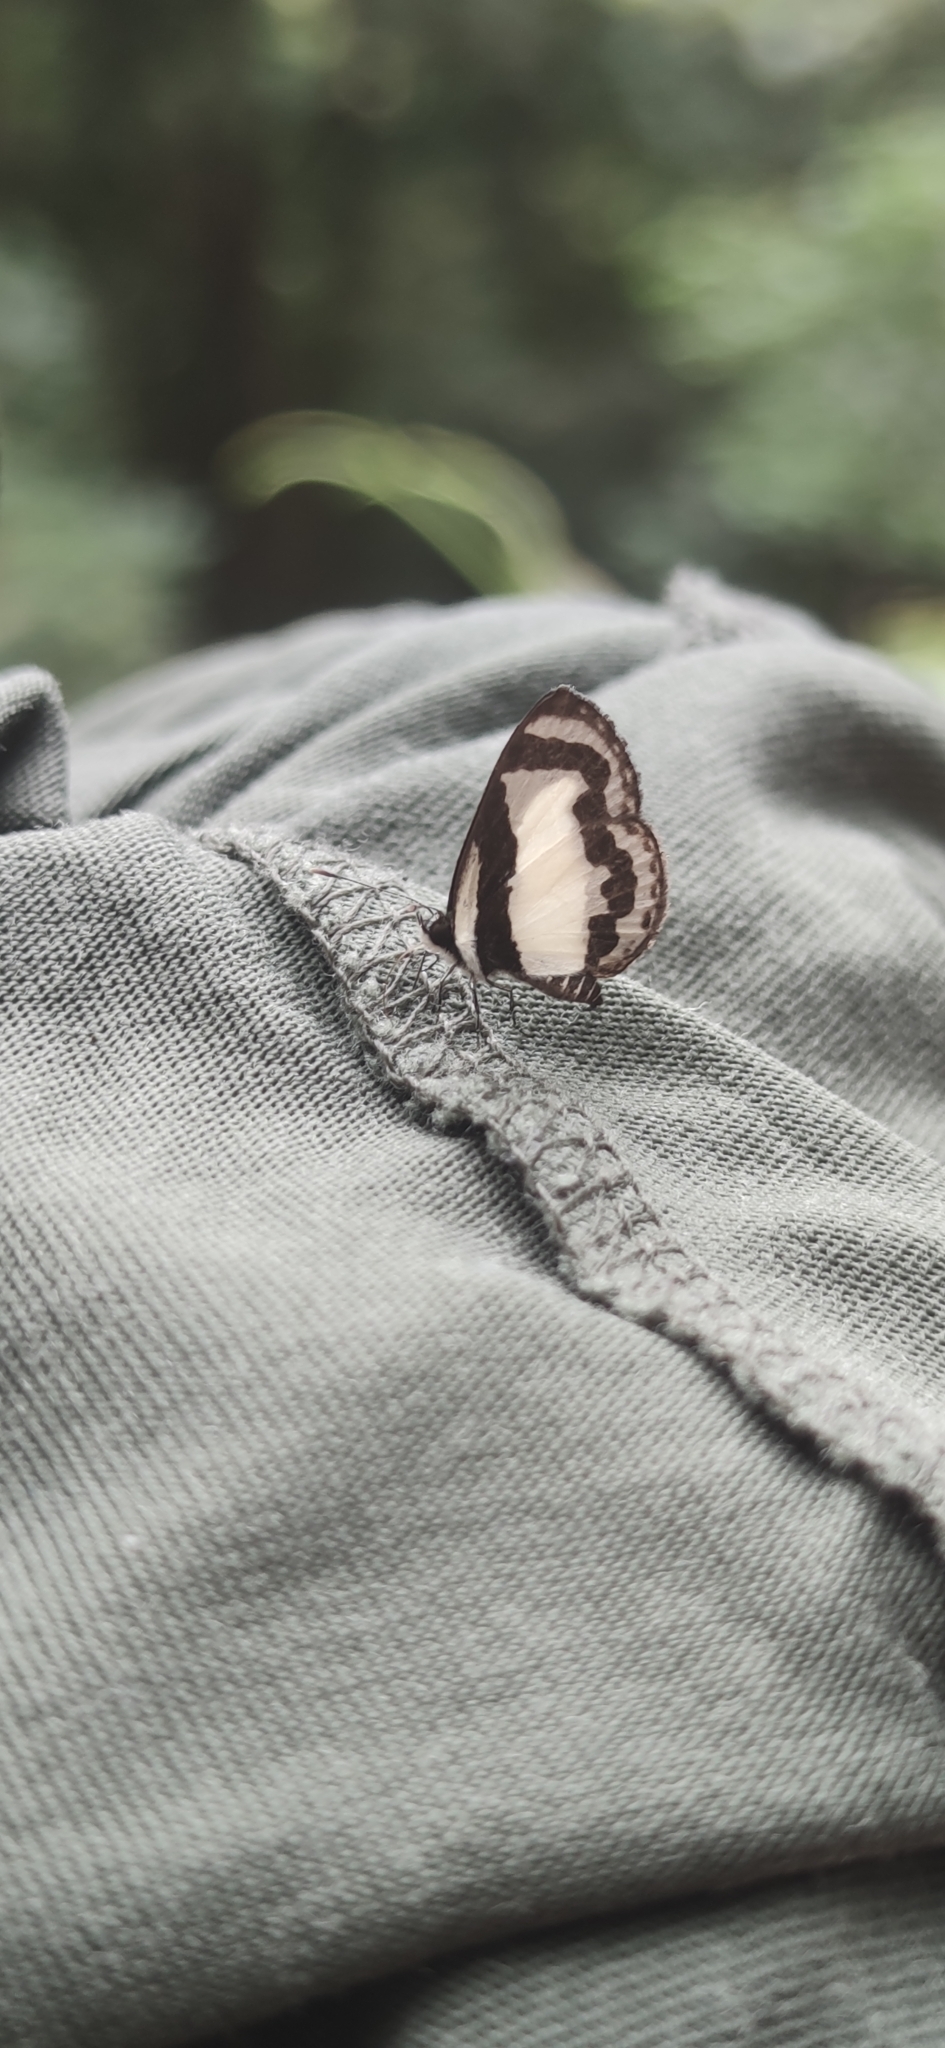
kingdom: Animalia
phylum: Arthropoda
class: Insecta
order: Lepidoptera
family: Lycaenidae
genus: Caleta
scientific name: Caleta roxus
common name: Straight pierrot
